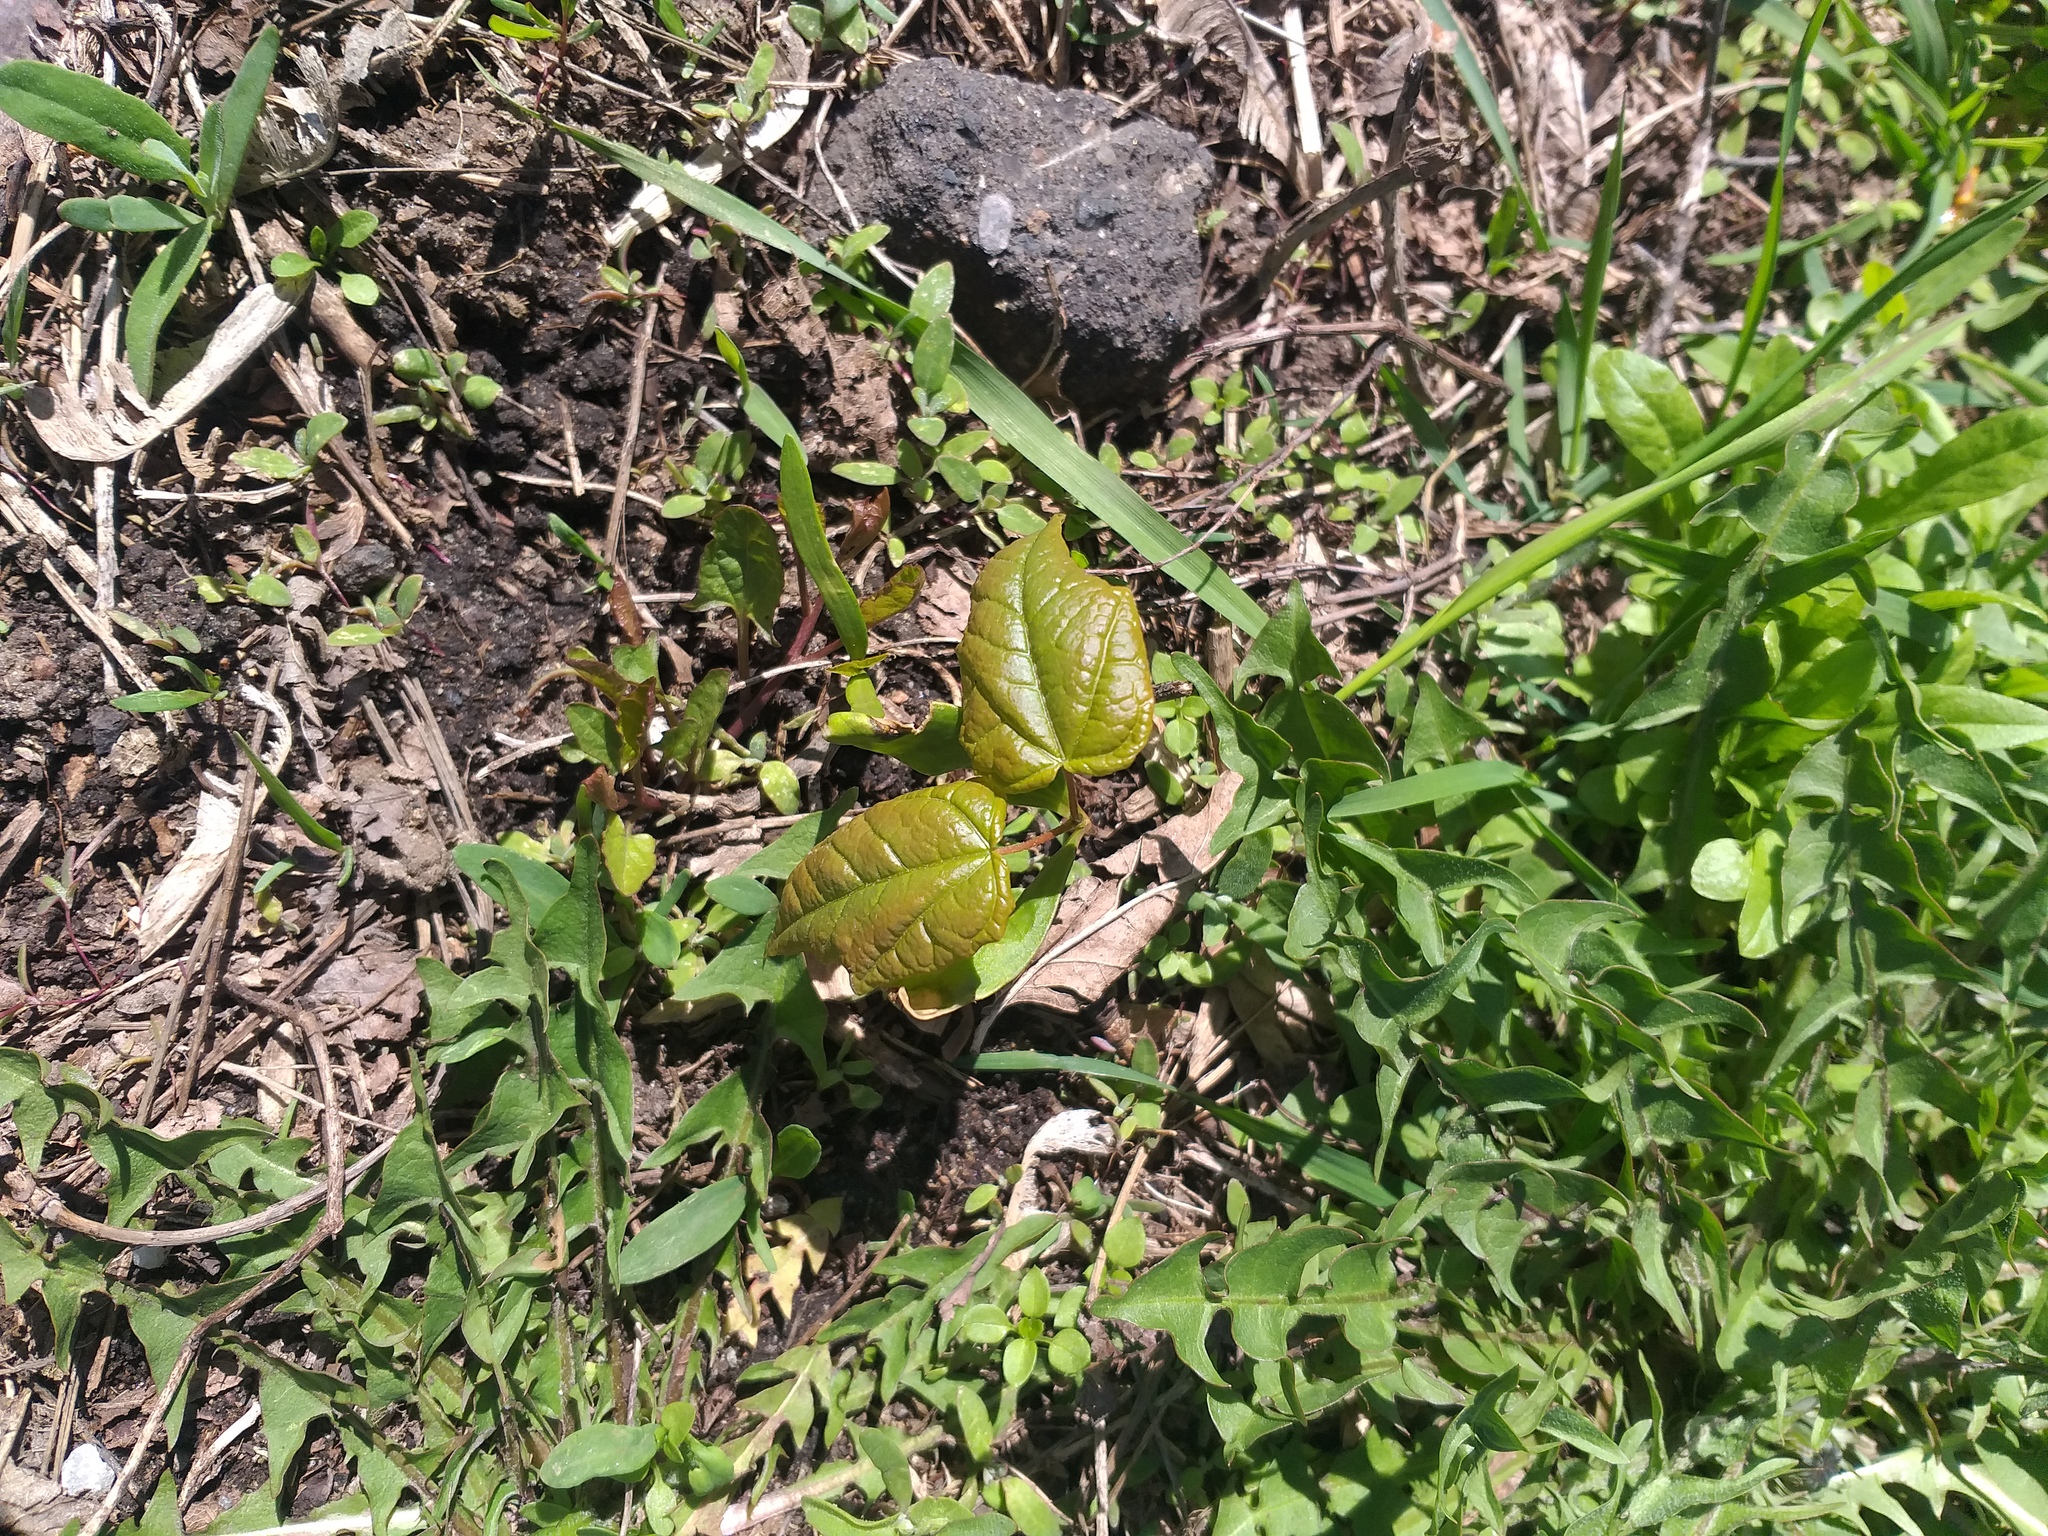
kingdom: Plantae
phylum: Tracheophyta
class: Magnoliopsida
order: Sapindales
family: Sapindaceae
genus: Acer
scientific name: Acer platanoides
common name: Norway maple
